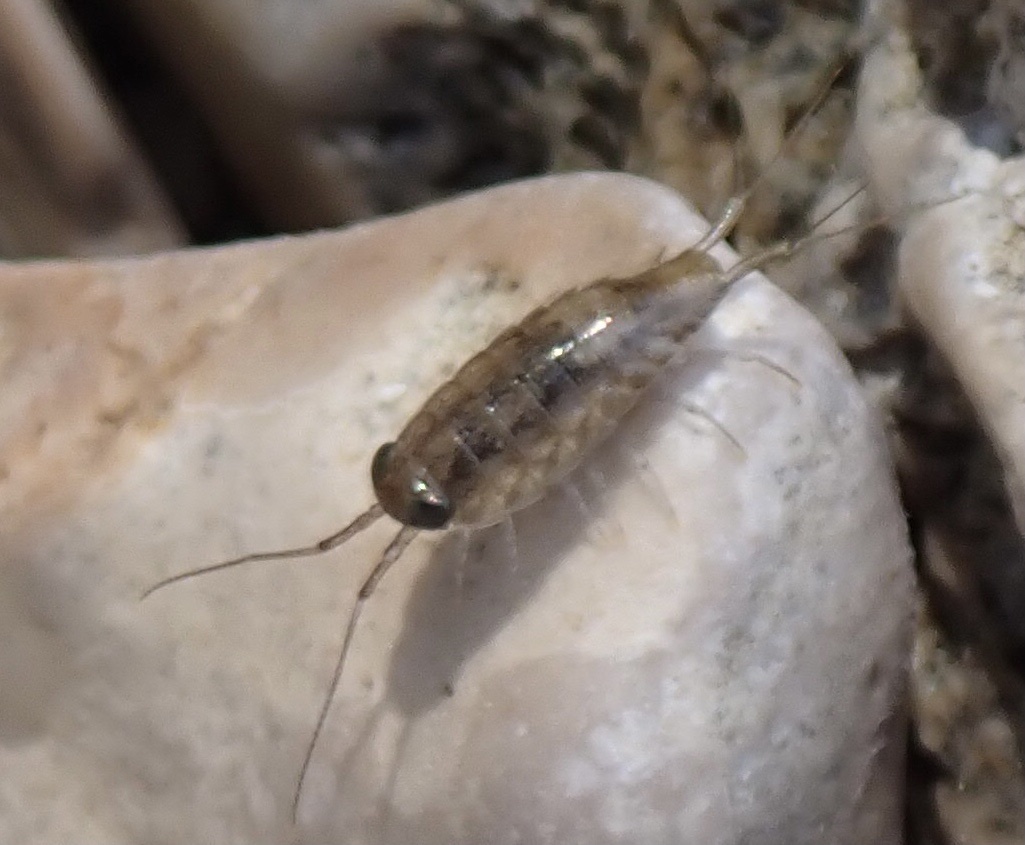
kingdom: Animalia
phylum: Arthropoda
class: Malacostraca
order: Isopoda
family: Ligiidae
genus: Ligia
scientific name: Ligia italica
